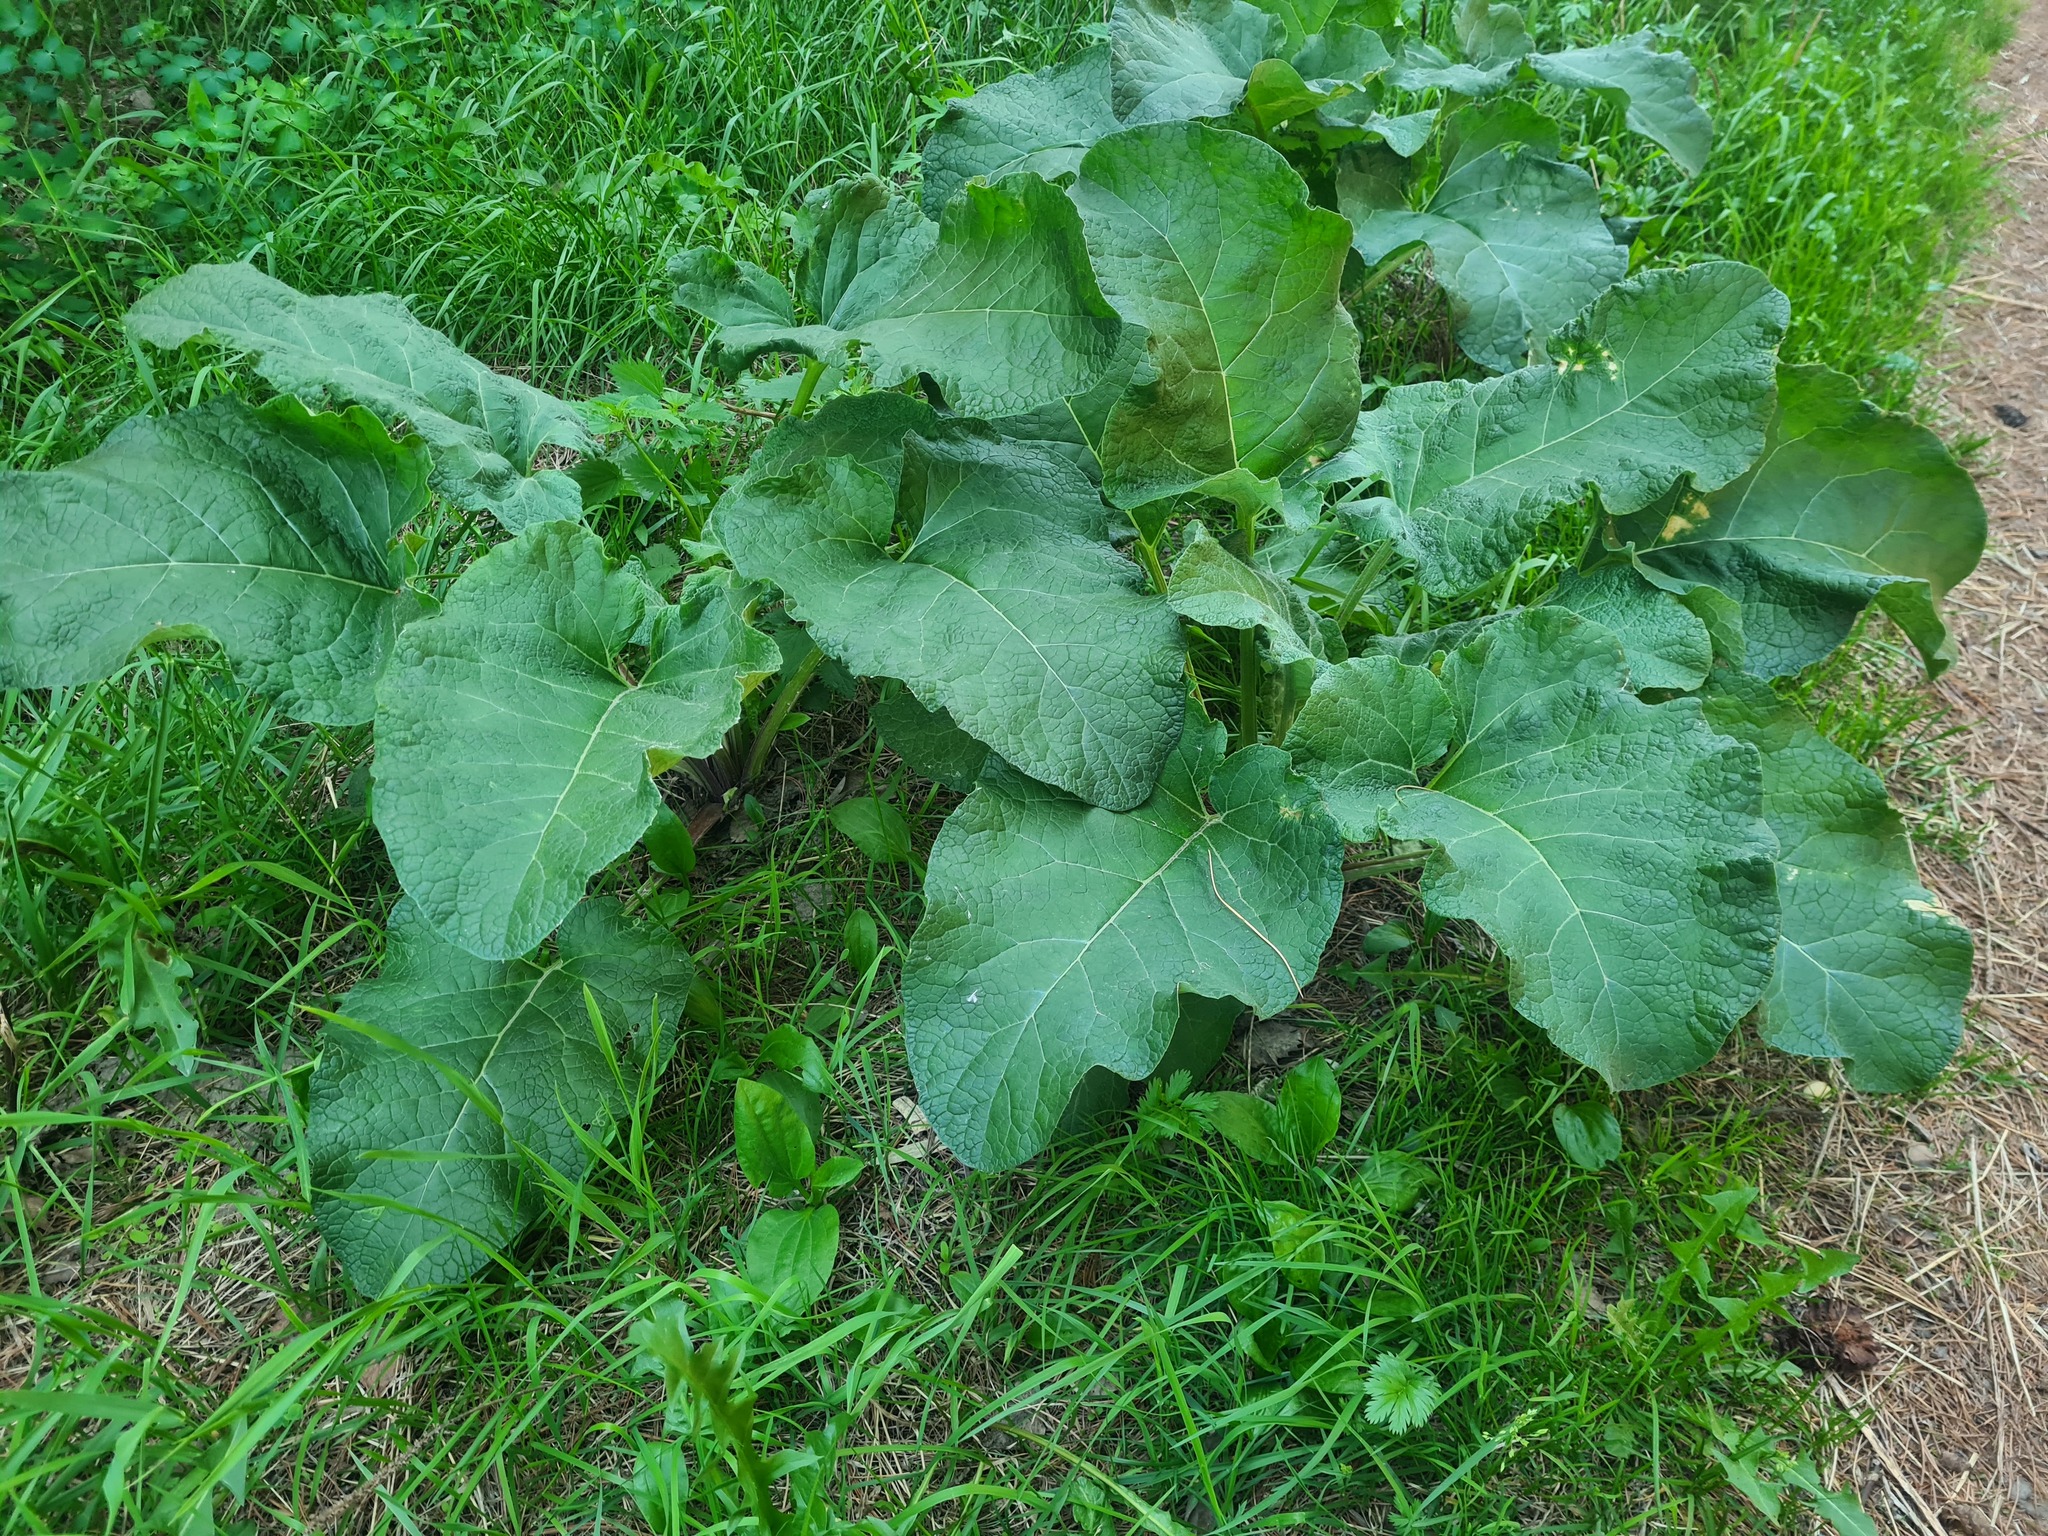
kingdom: Plantae
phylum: Tracheophyta
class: Magnoliopsida
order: Asterales
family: Asteraceae
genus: Arctium
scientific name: Arctium
